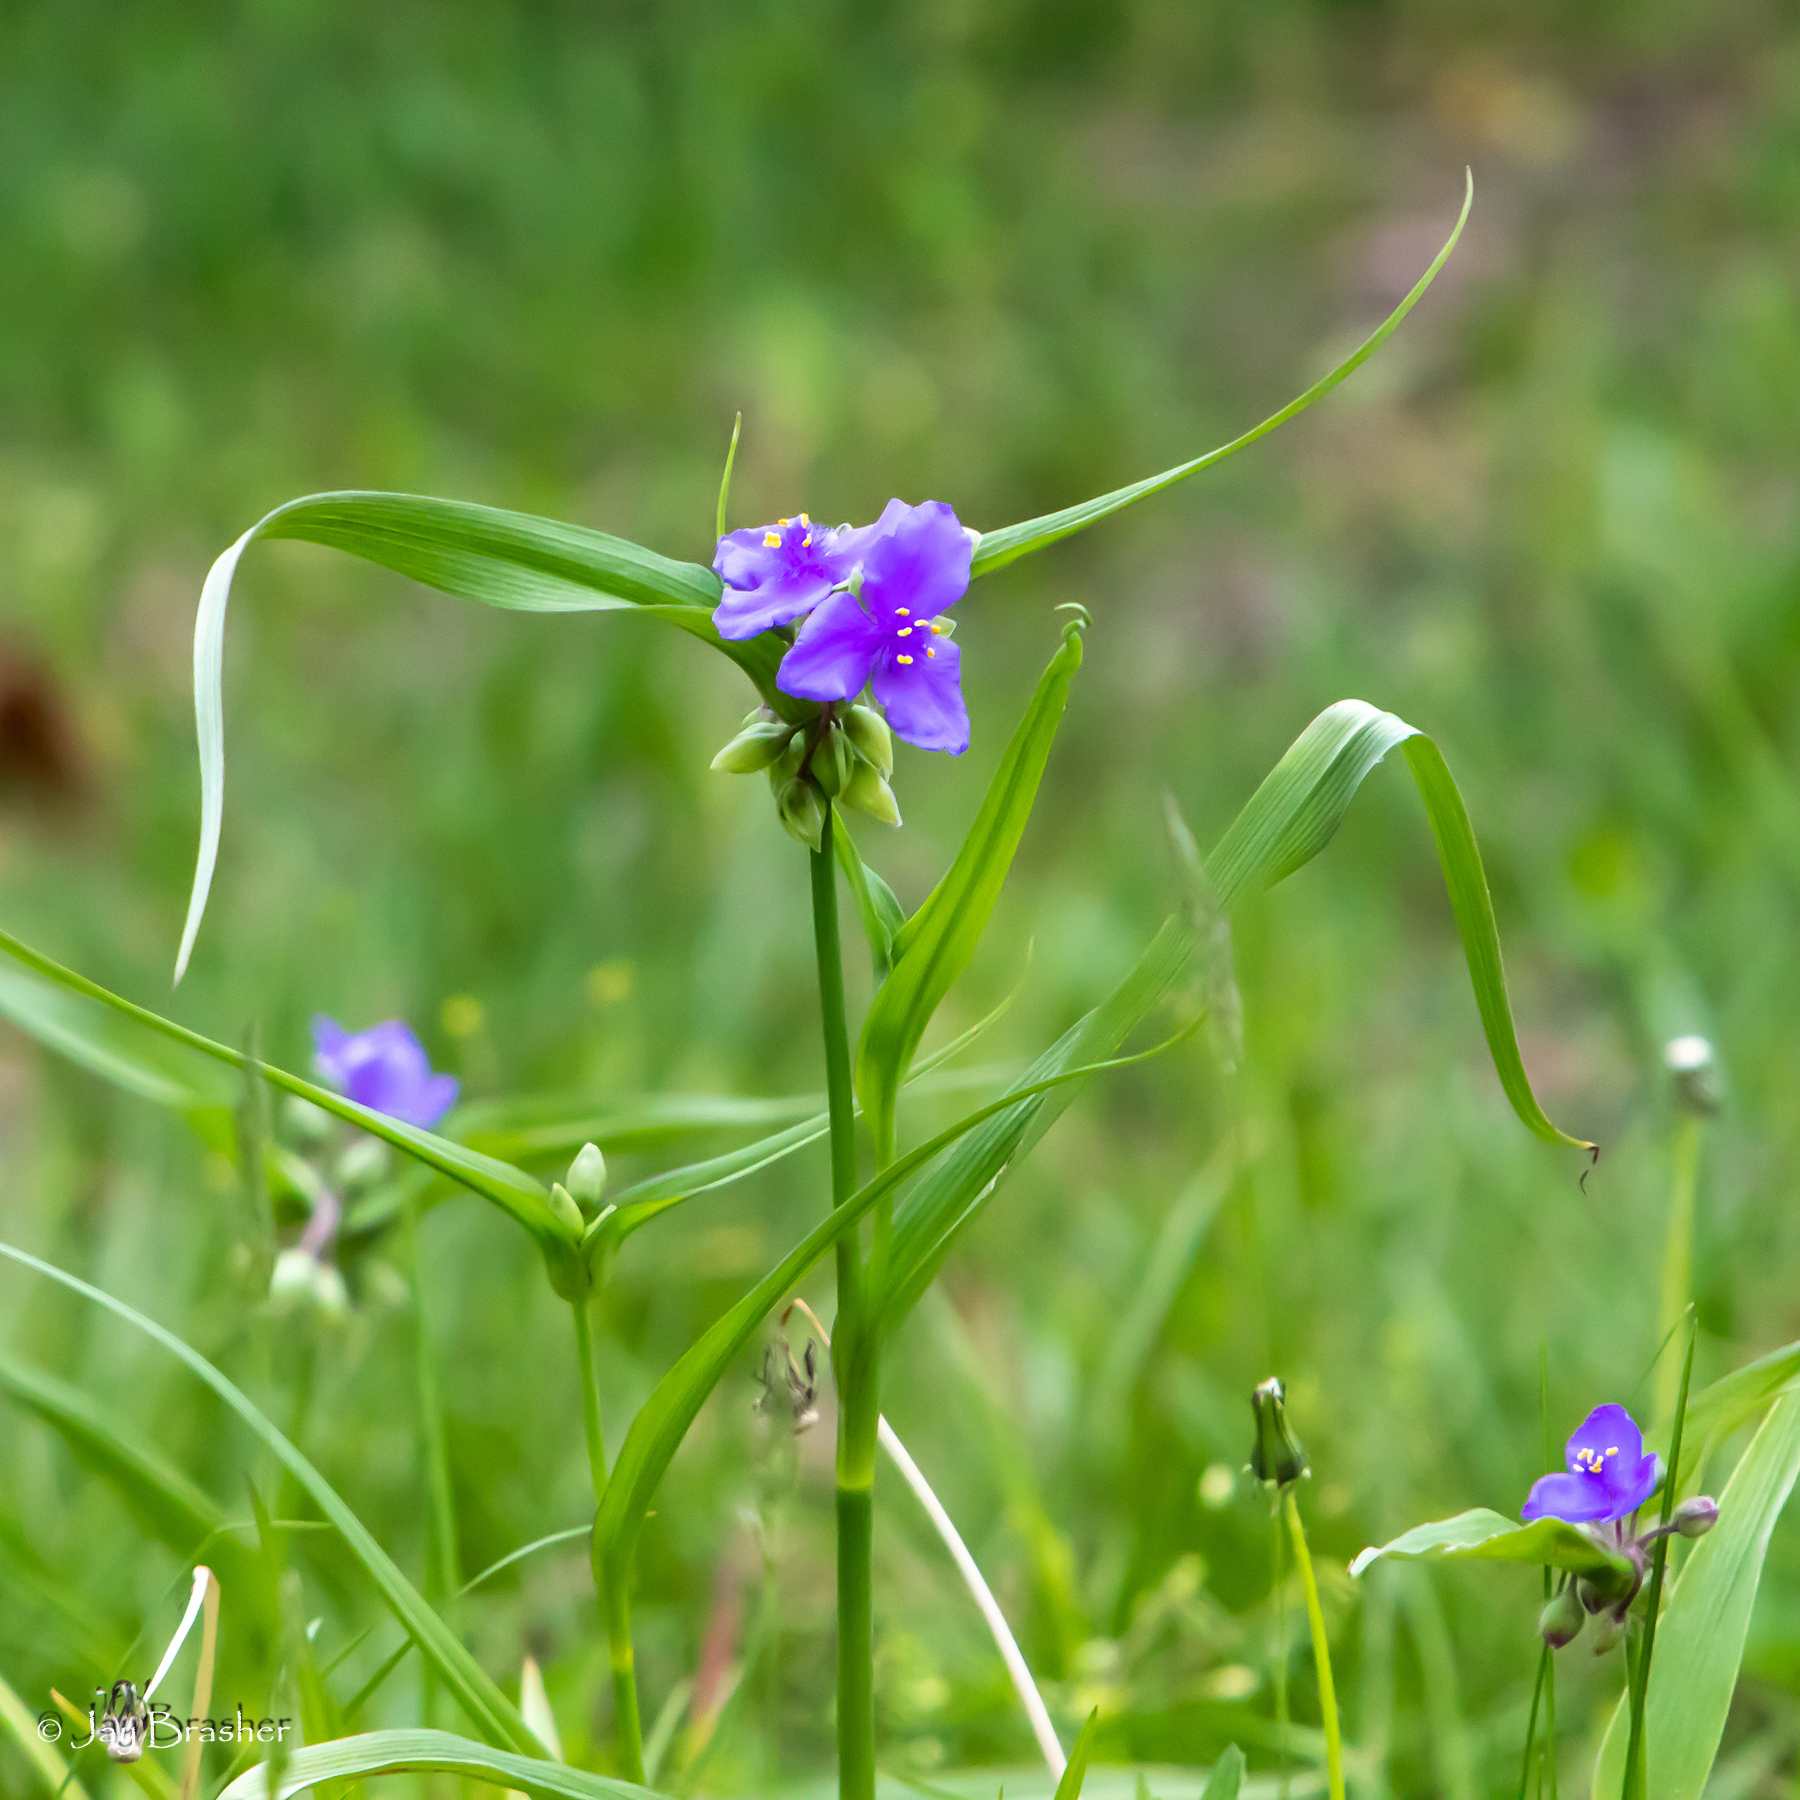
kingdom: Plantae
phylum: Tracheophyta
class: Liliopsida
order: Commelinales
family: Commelinaceae
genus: Tradescantia
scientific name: Tradescantia ohiensis
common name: Ohio spiderwort
